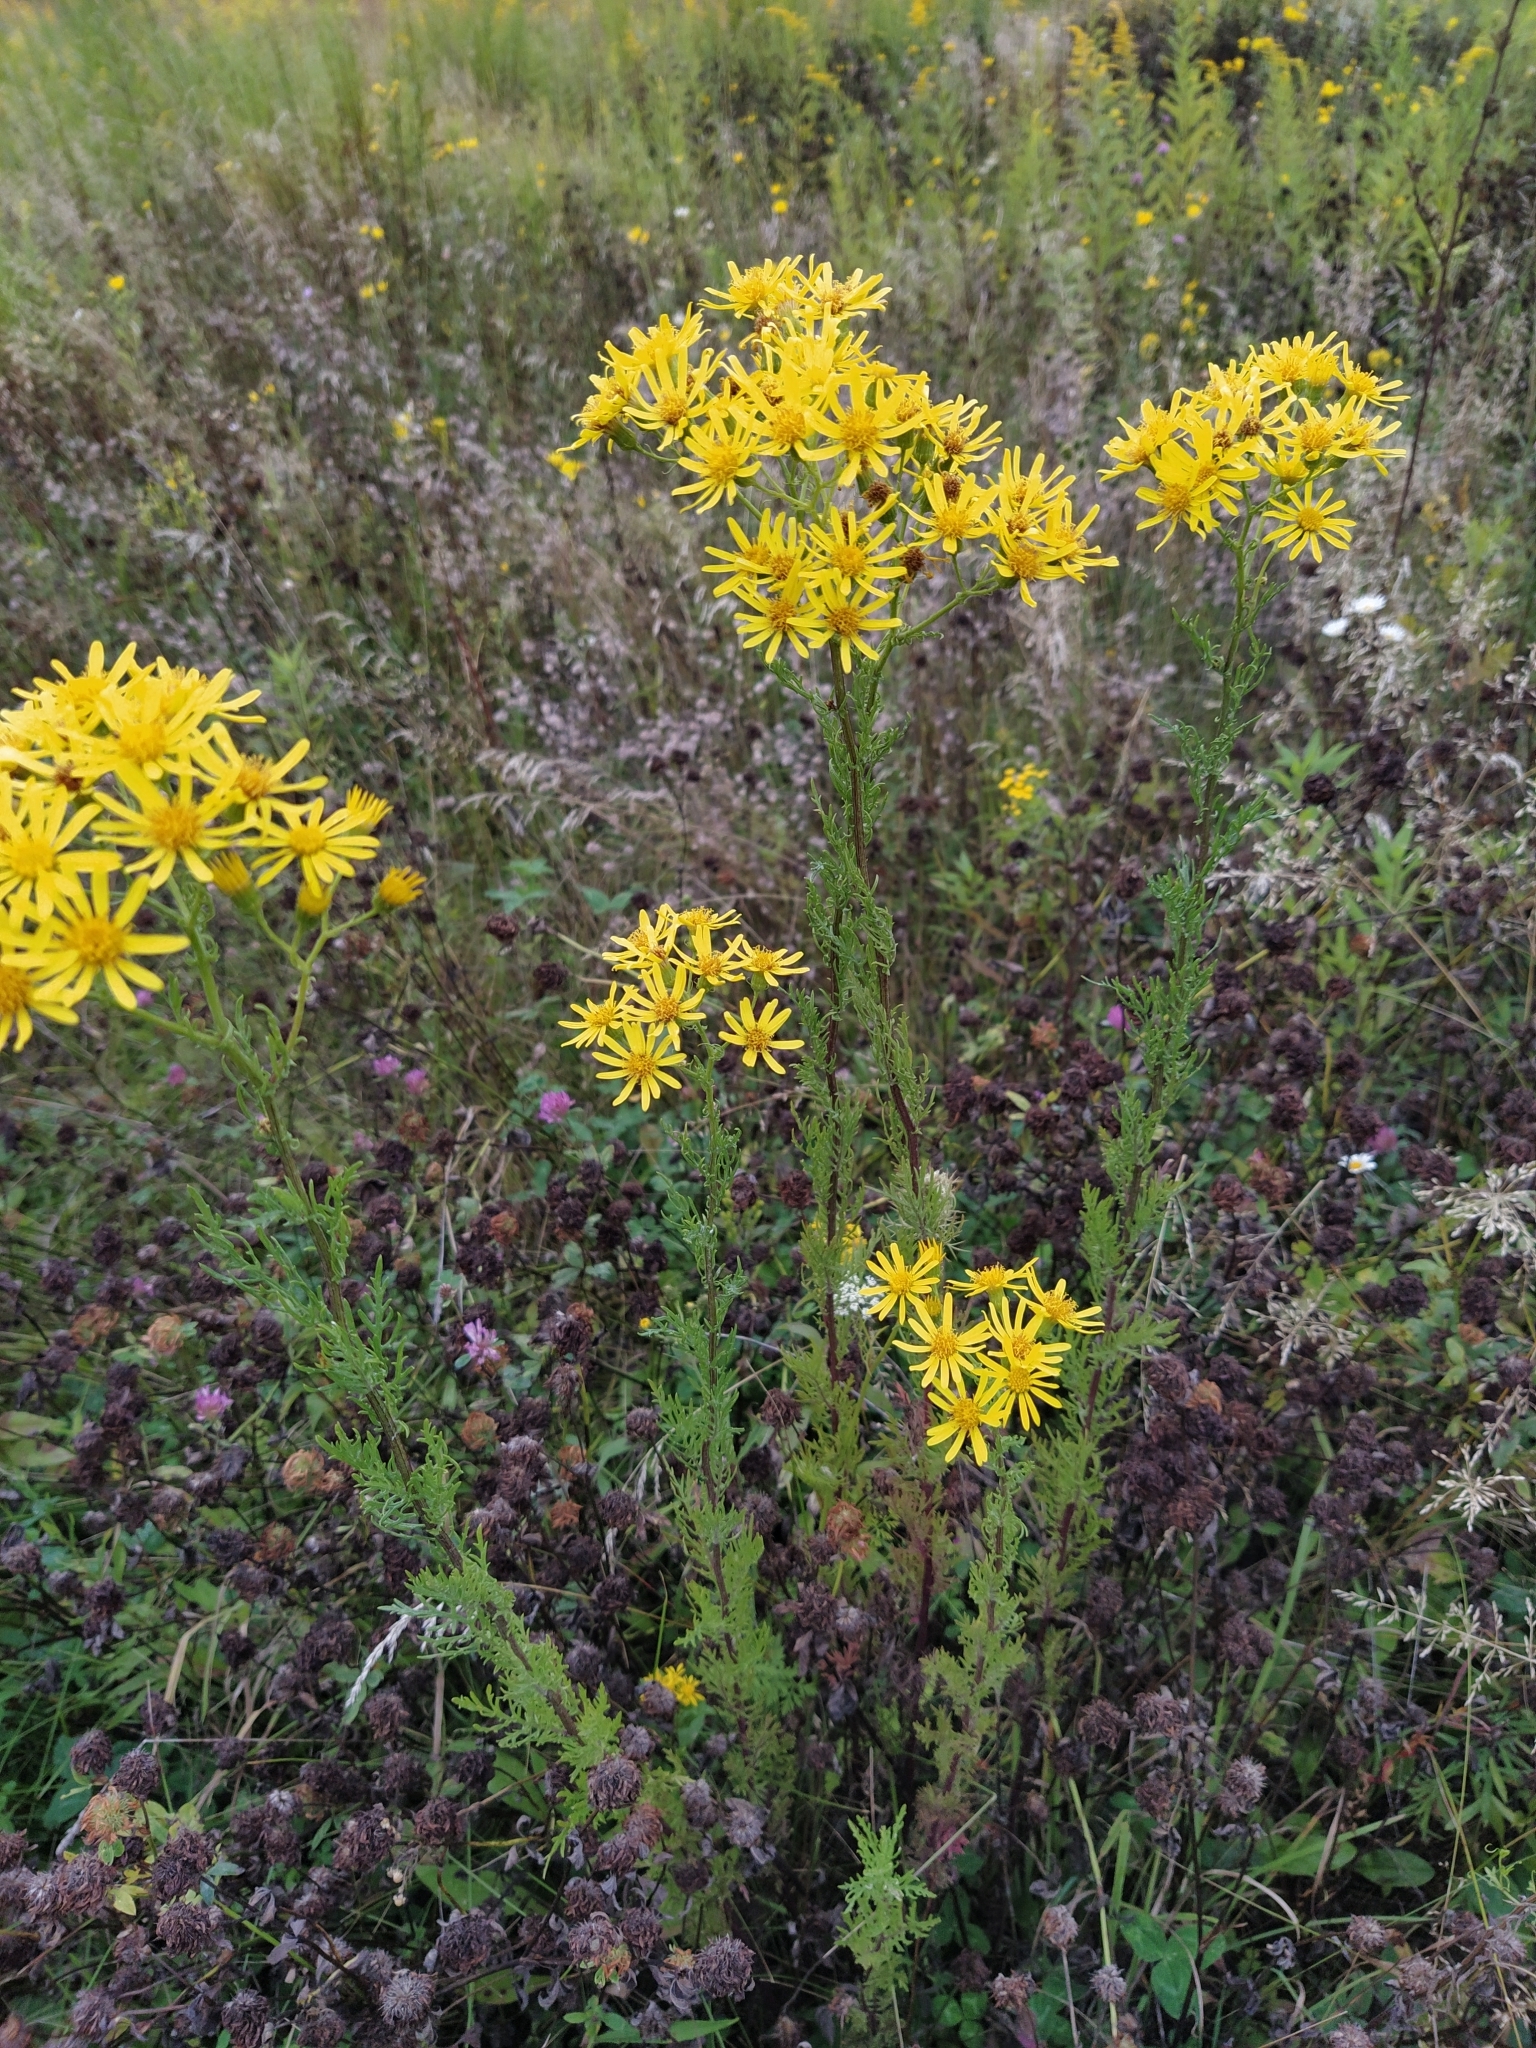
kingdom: Plantae
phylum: Tracheophyta
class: Magnoliopsida
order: Asterales
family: Asteraceae
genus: Jacobaea
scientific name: Jacobaea vulgaris
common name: Stinking willie
